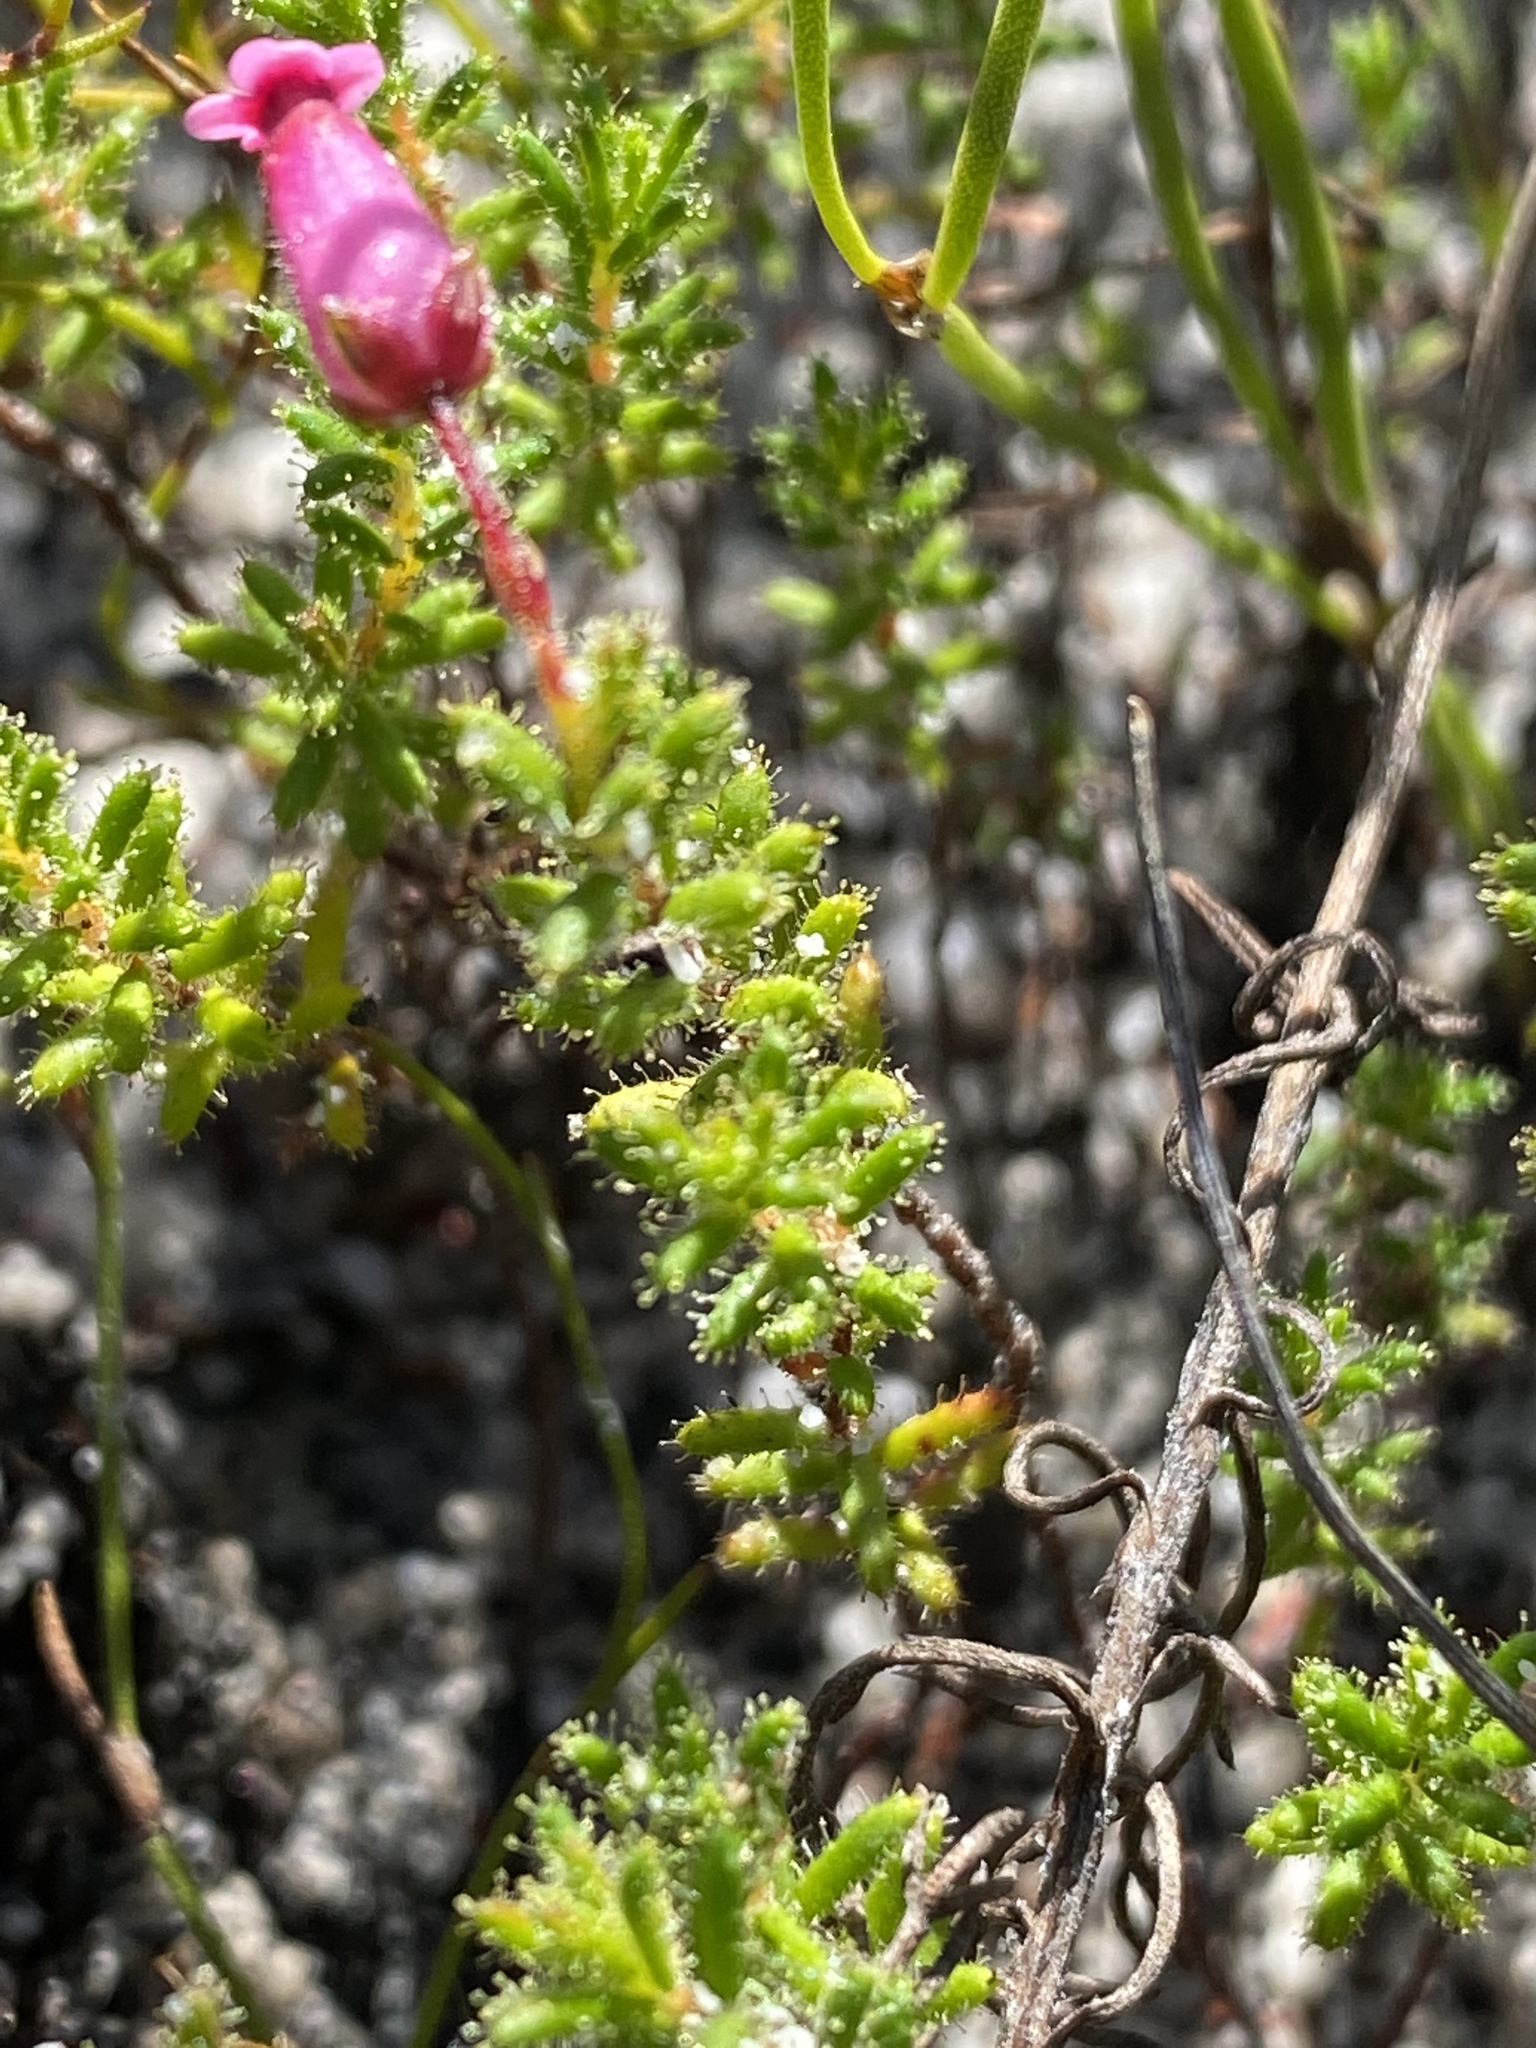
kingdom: Plantae
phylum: Tracheophyta
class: Magnoliopsida
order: Ericales
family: Ericaceae
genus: Erica
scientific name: Erica glutinosa
